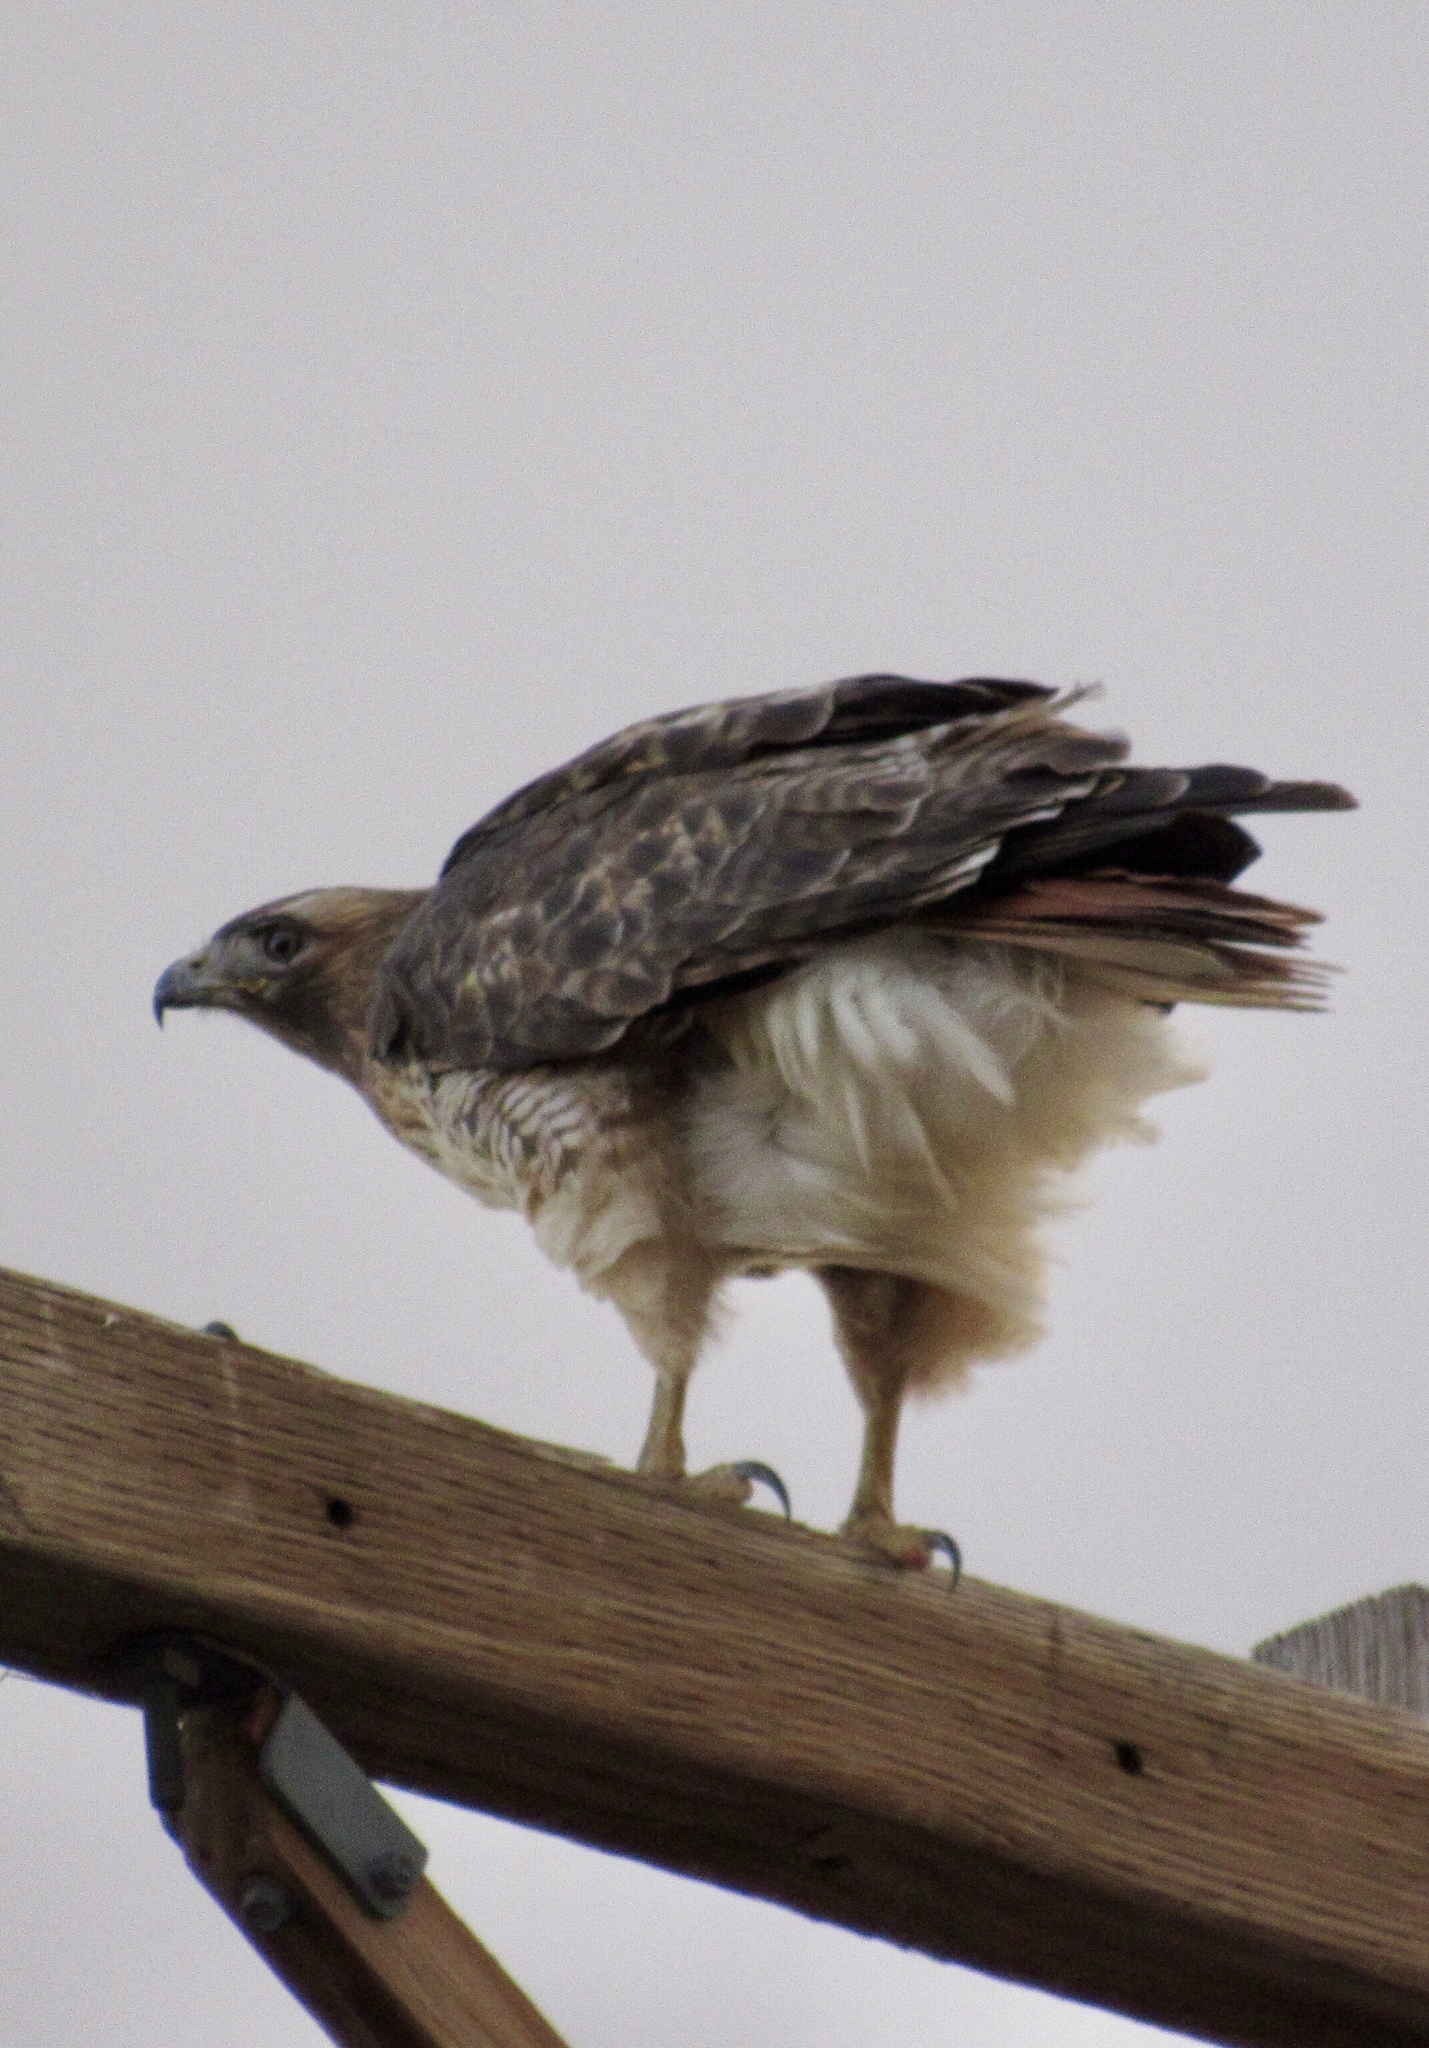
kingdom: Animalia
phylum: Chordata
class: Aves
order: Accipitriformes
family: Accipitridae
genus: Buteo
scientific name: Buteo jamaicensis
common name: Red-tailed hawk
